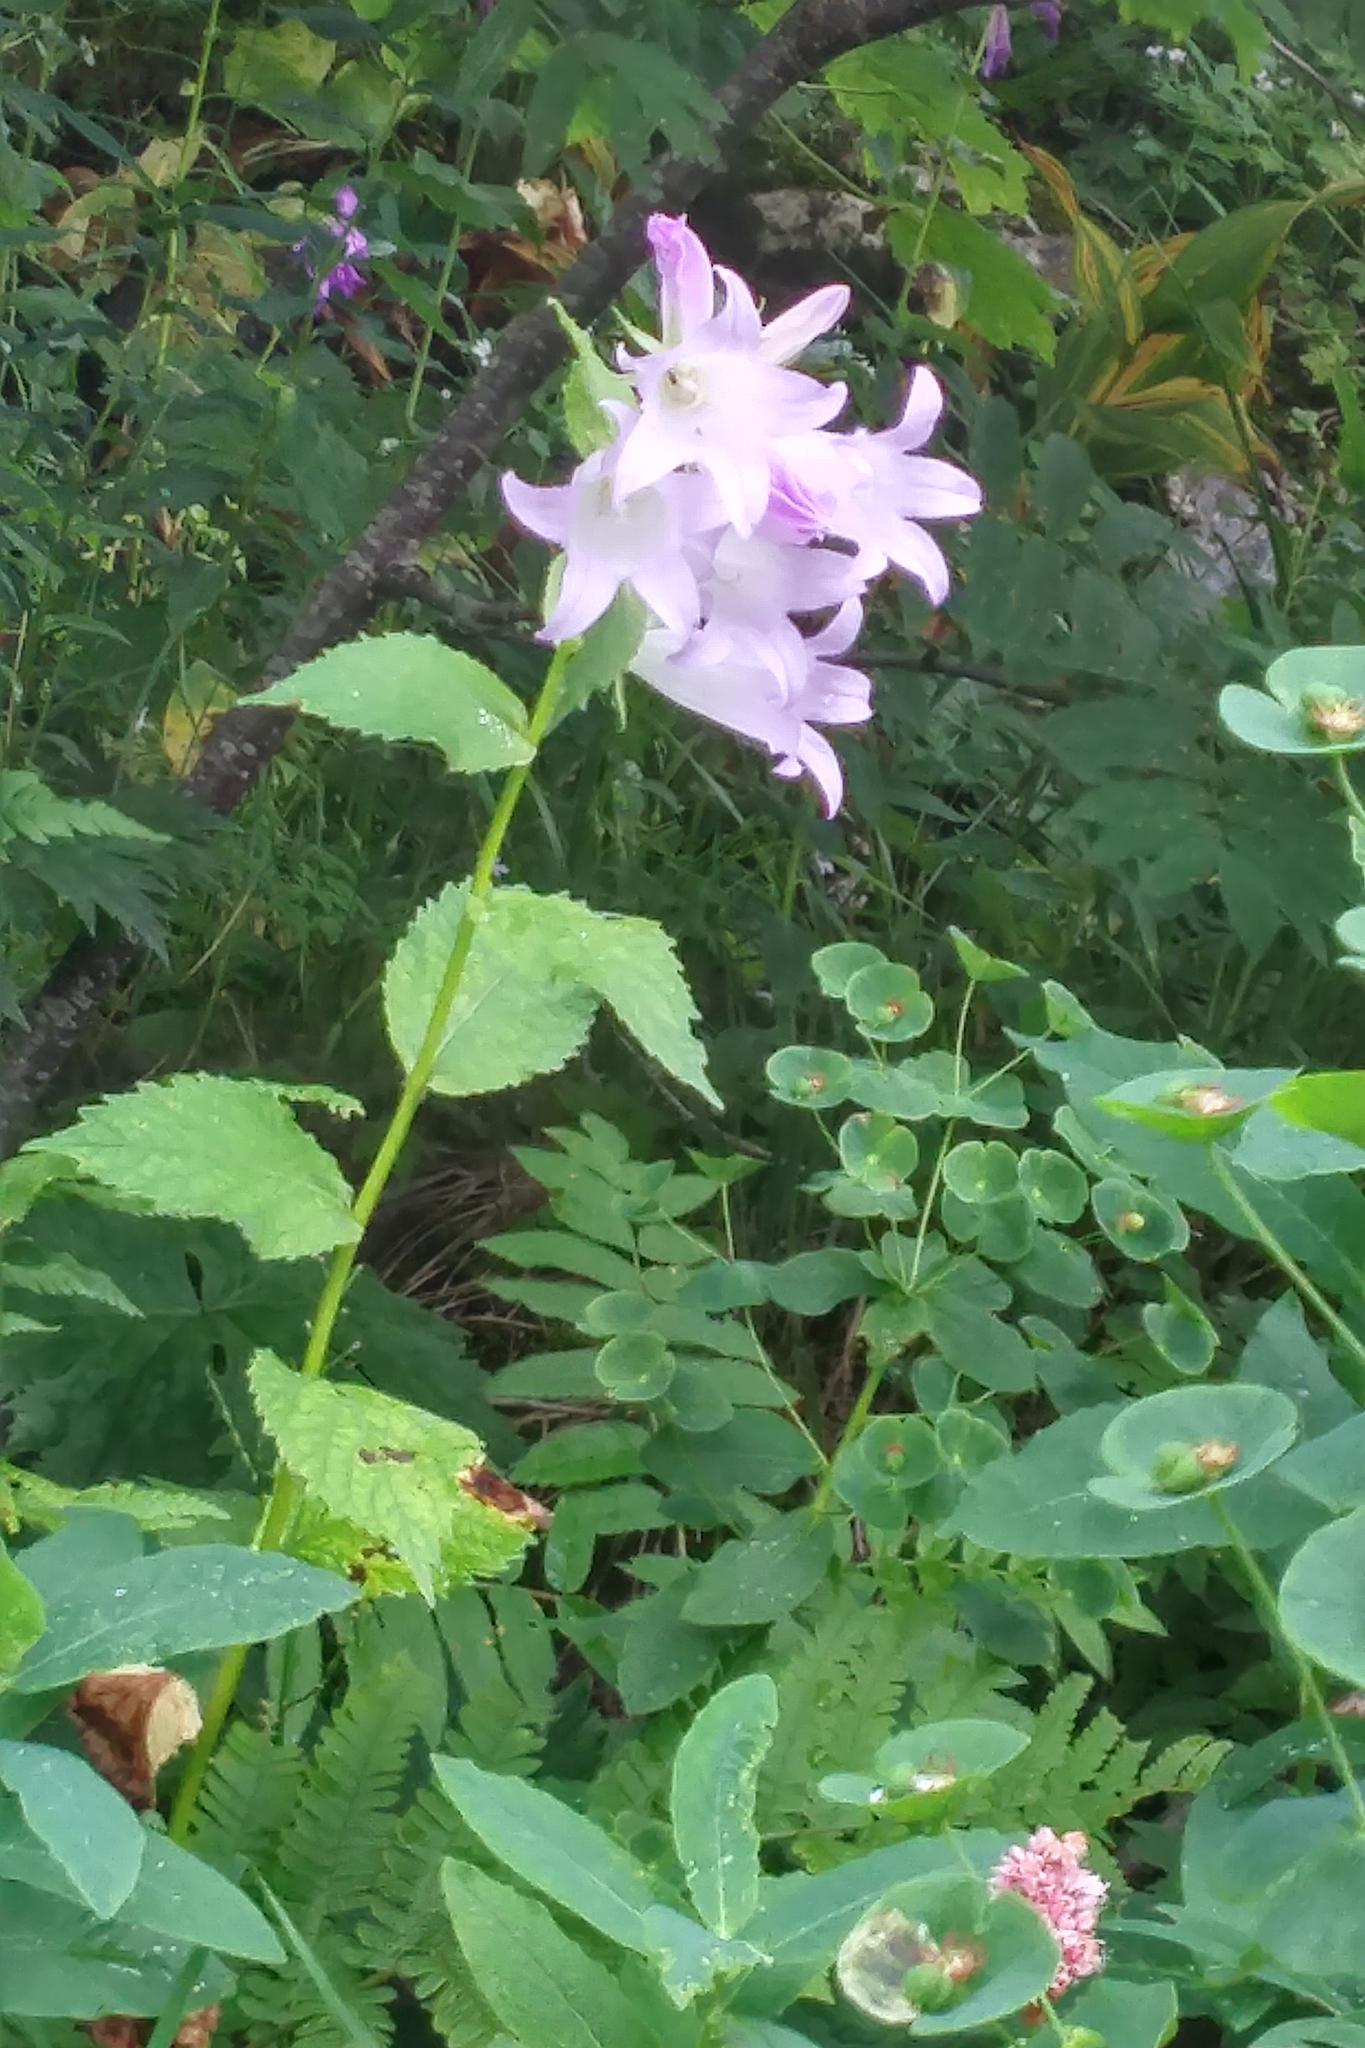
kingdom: Plantae
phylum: Tracheophyta
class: Magnoliopsida
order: Asterales
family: Campanulaceae
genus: Campanula
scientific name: Campanula latifolia
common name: Giant bellflower
